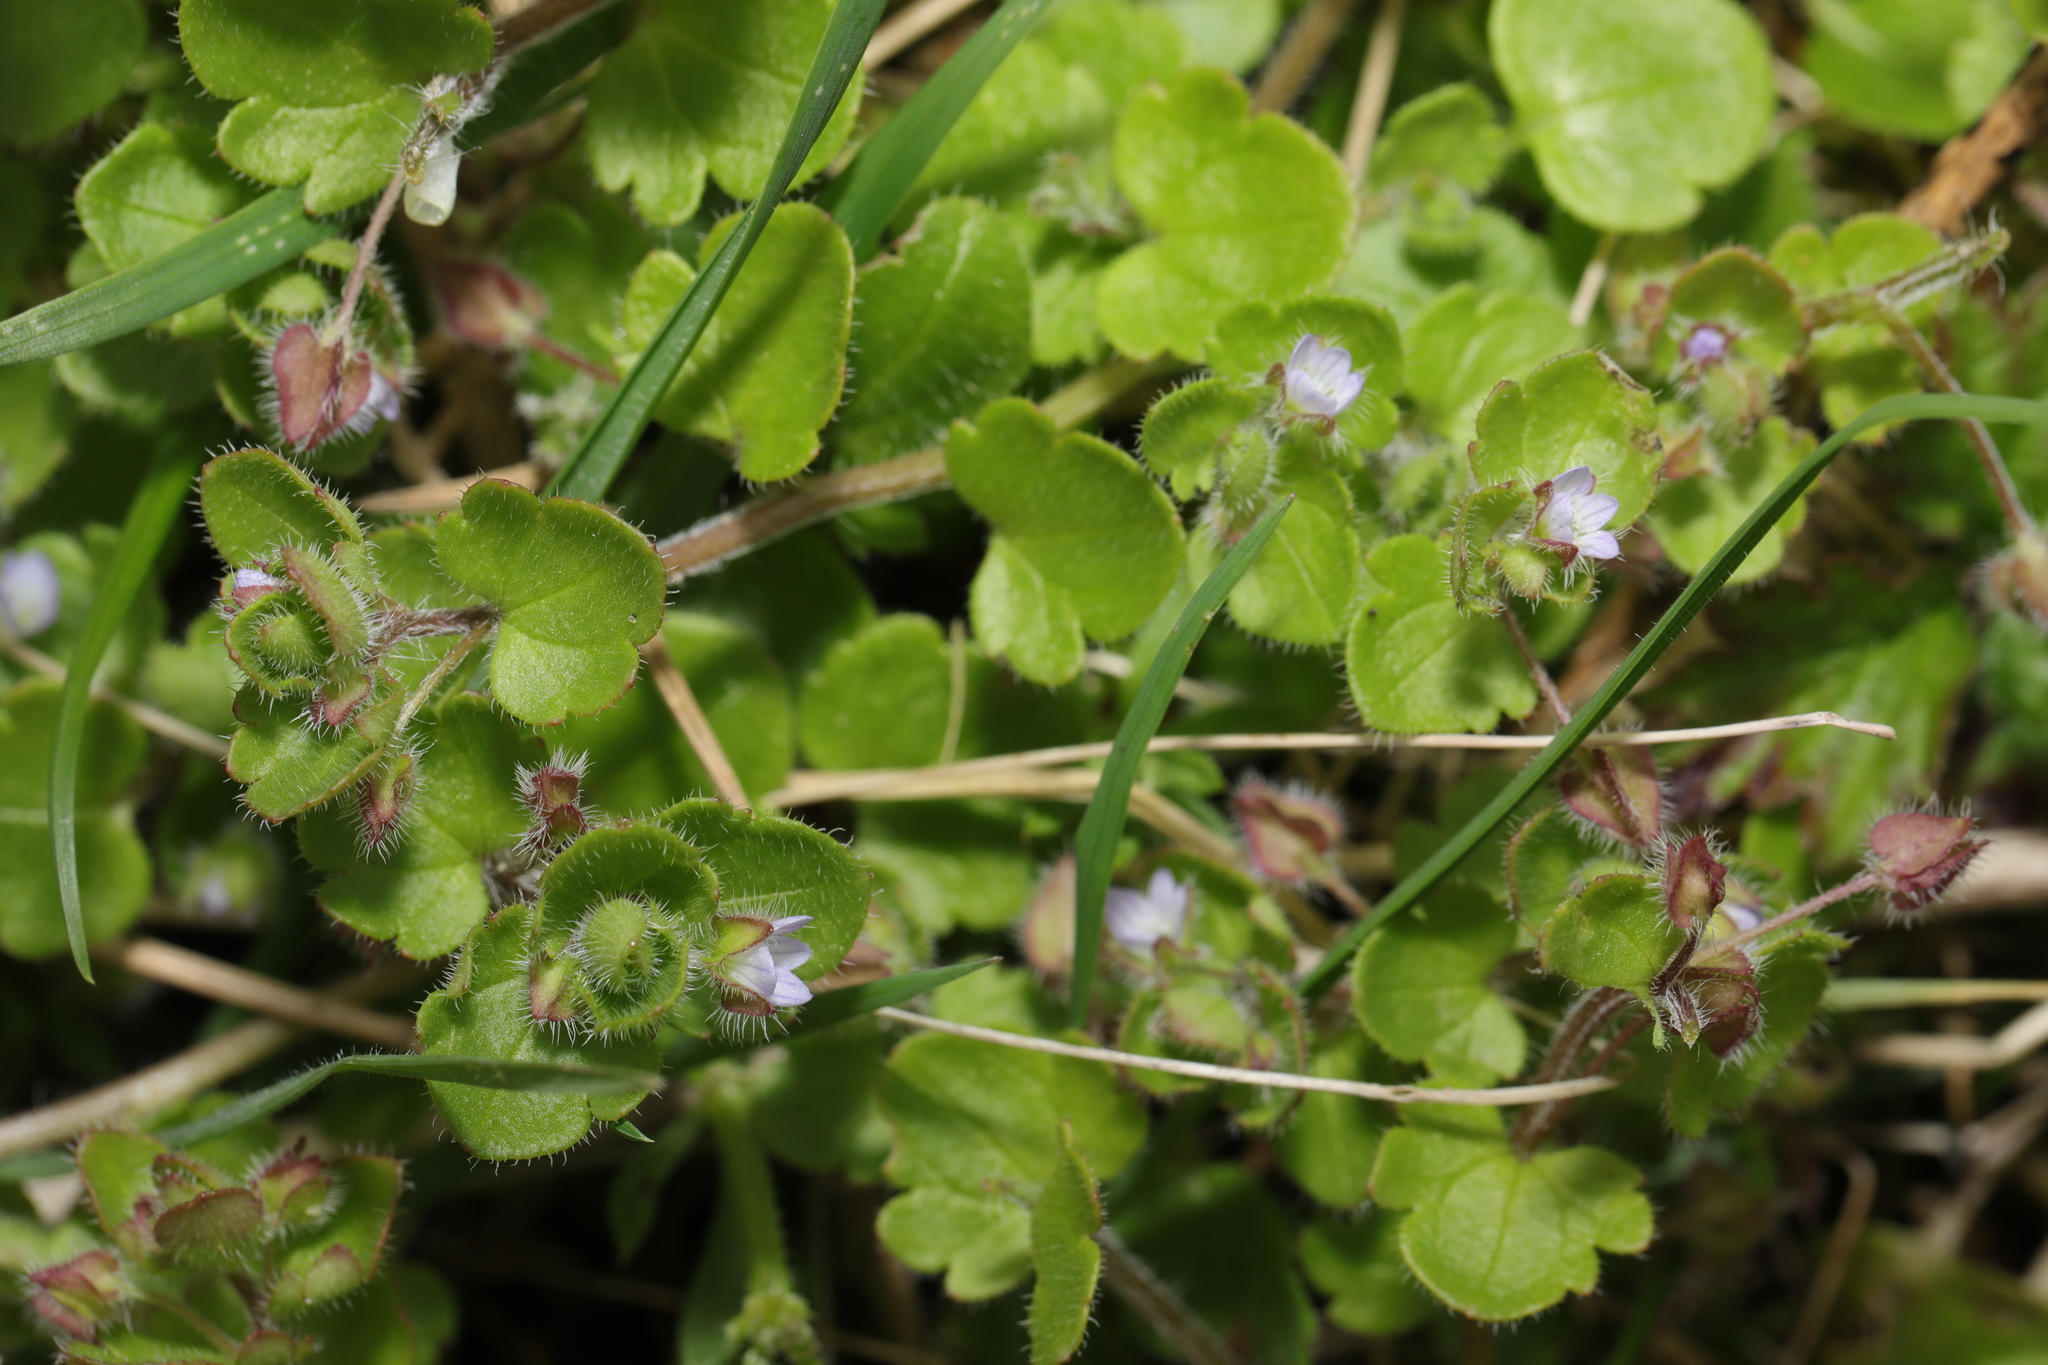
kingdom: Plantae
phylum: Tracheophyta
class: Magnoliopsida
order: Lamiales
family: Plantaginaceae
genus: Veronica
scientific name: Veronica sublobata
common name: False ivy-leaved speedwell
